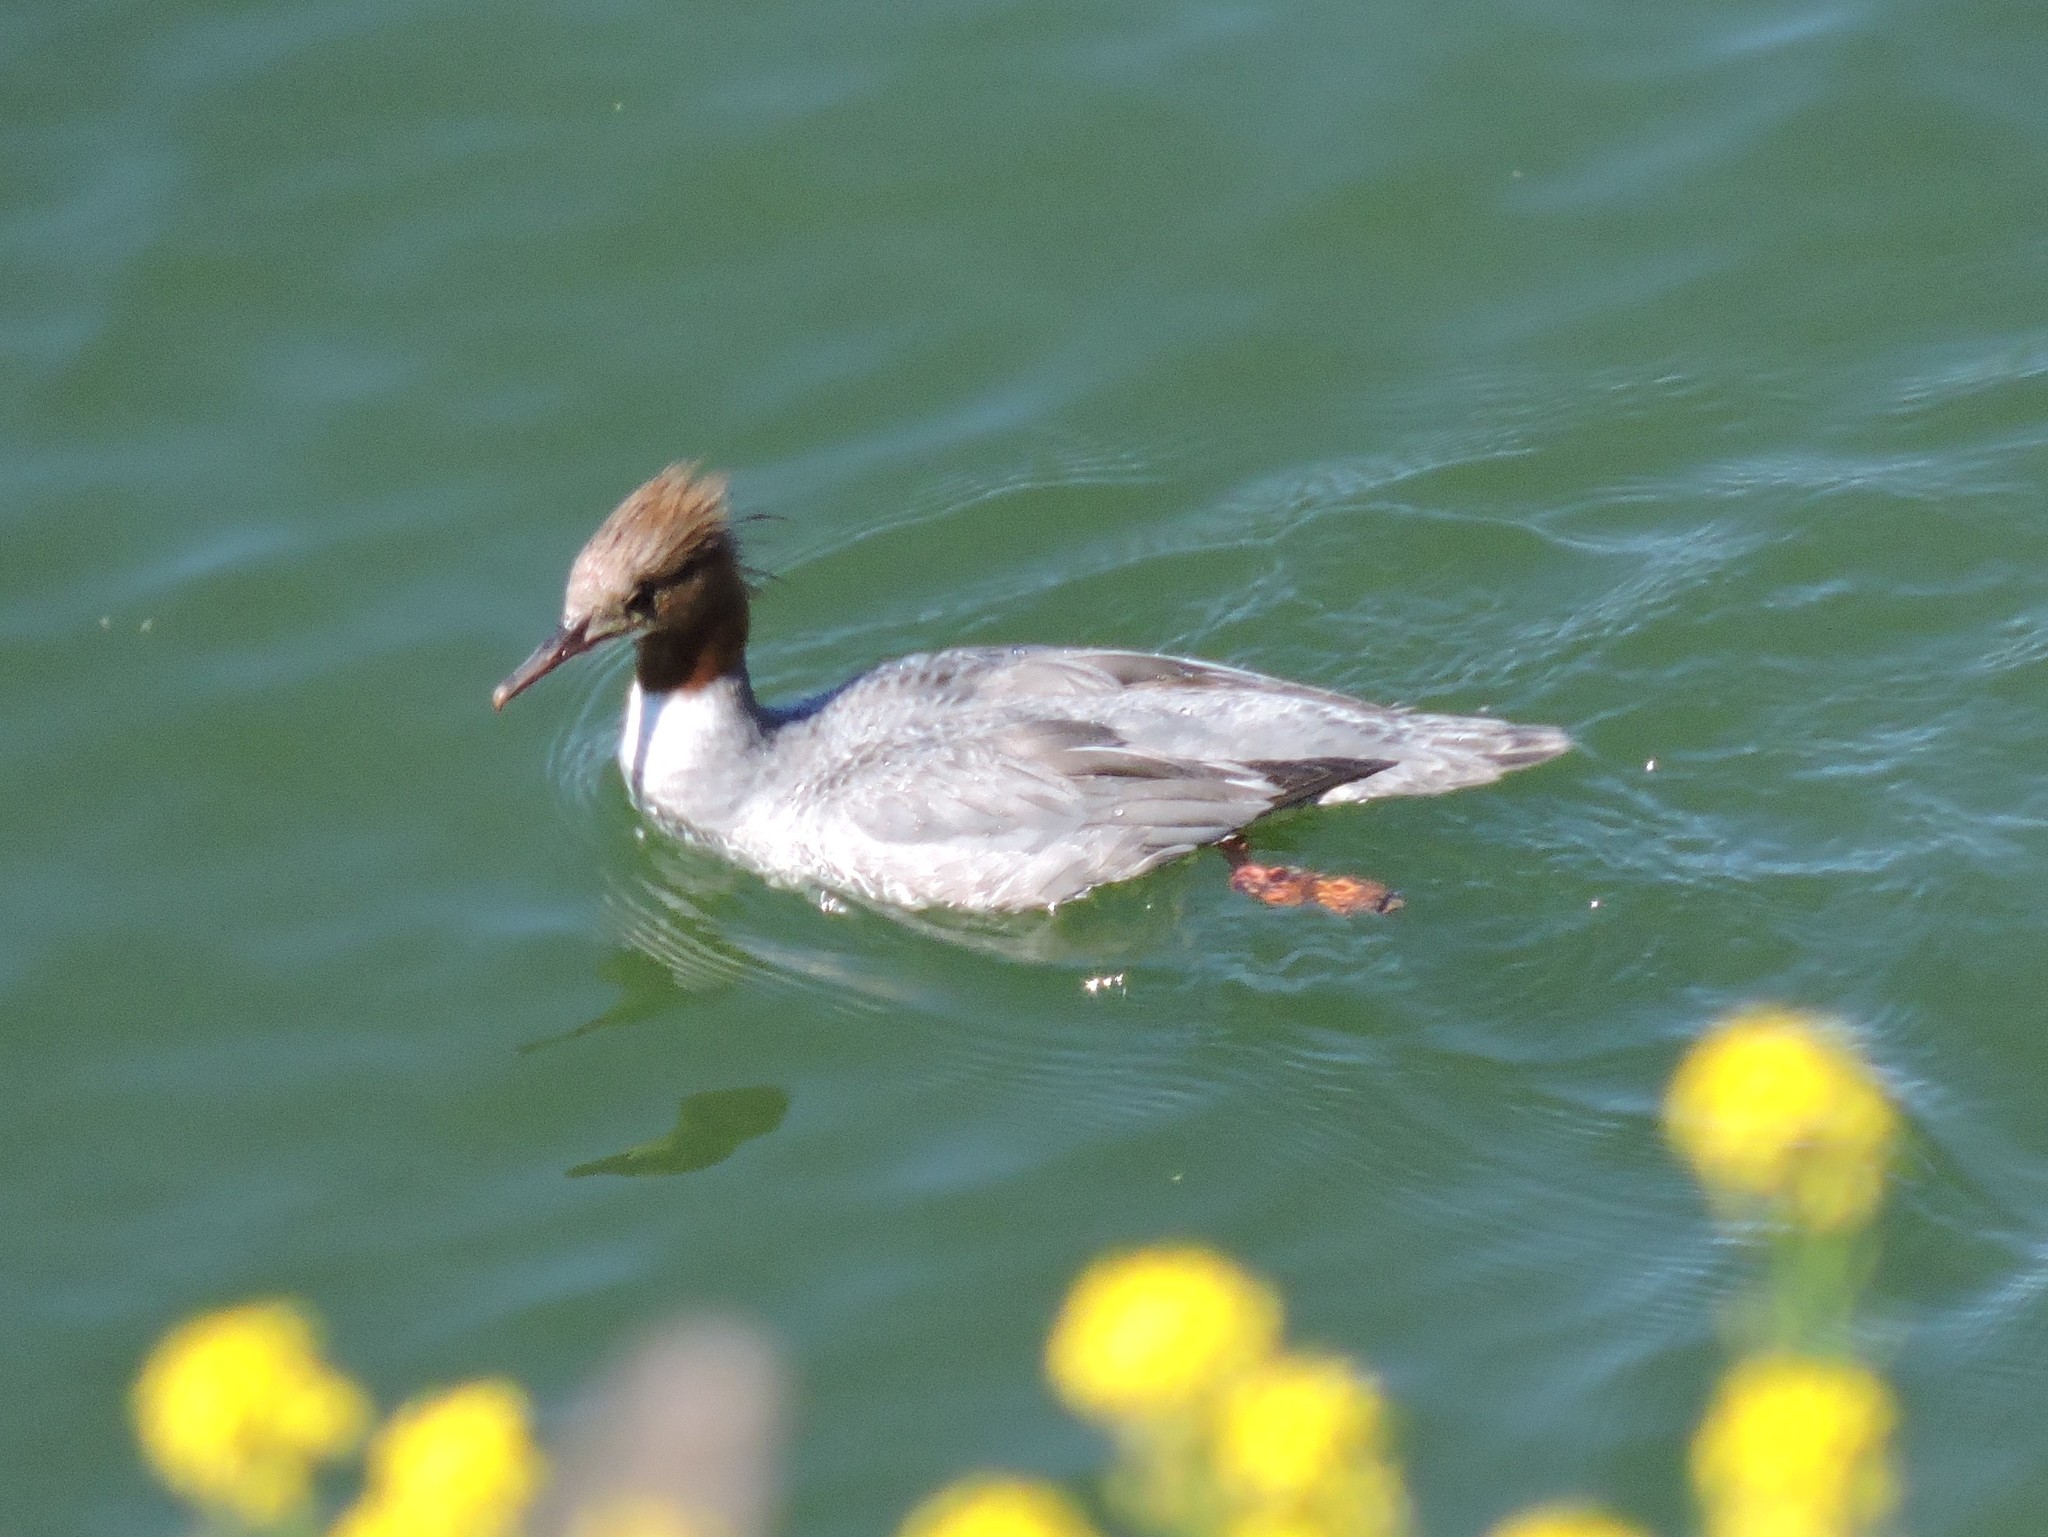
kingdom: Animalia
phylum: Chordata
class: Aves
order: Anseriformes
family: Anatidae
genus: Mergus
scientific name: Mergus merganser
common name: Common merganser
